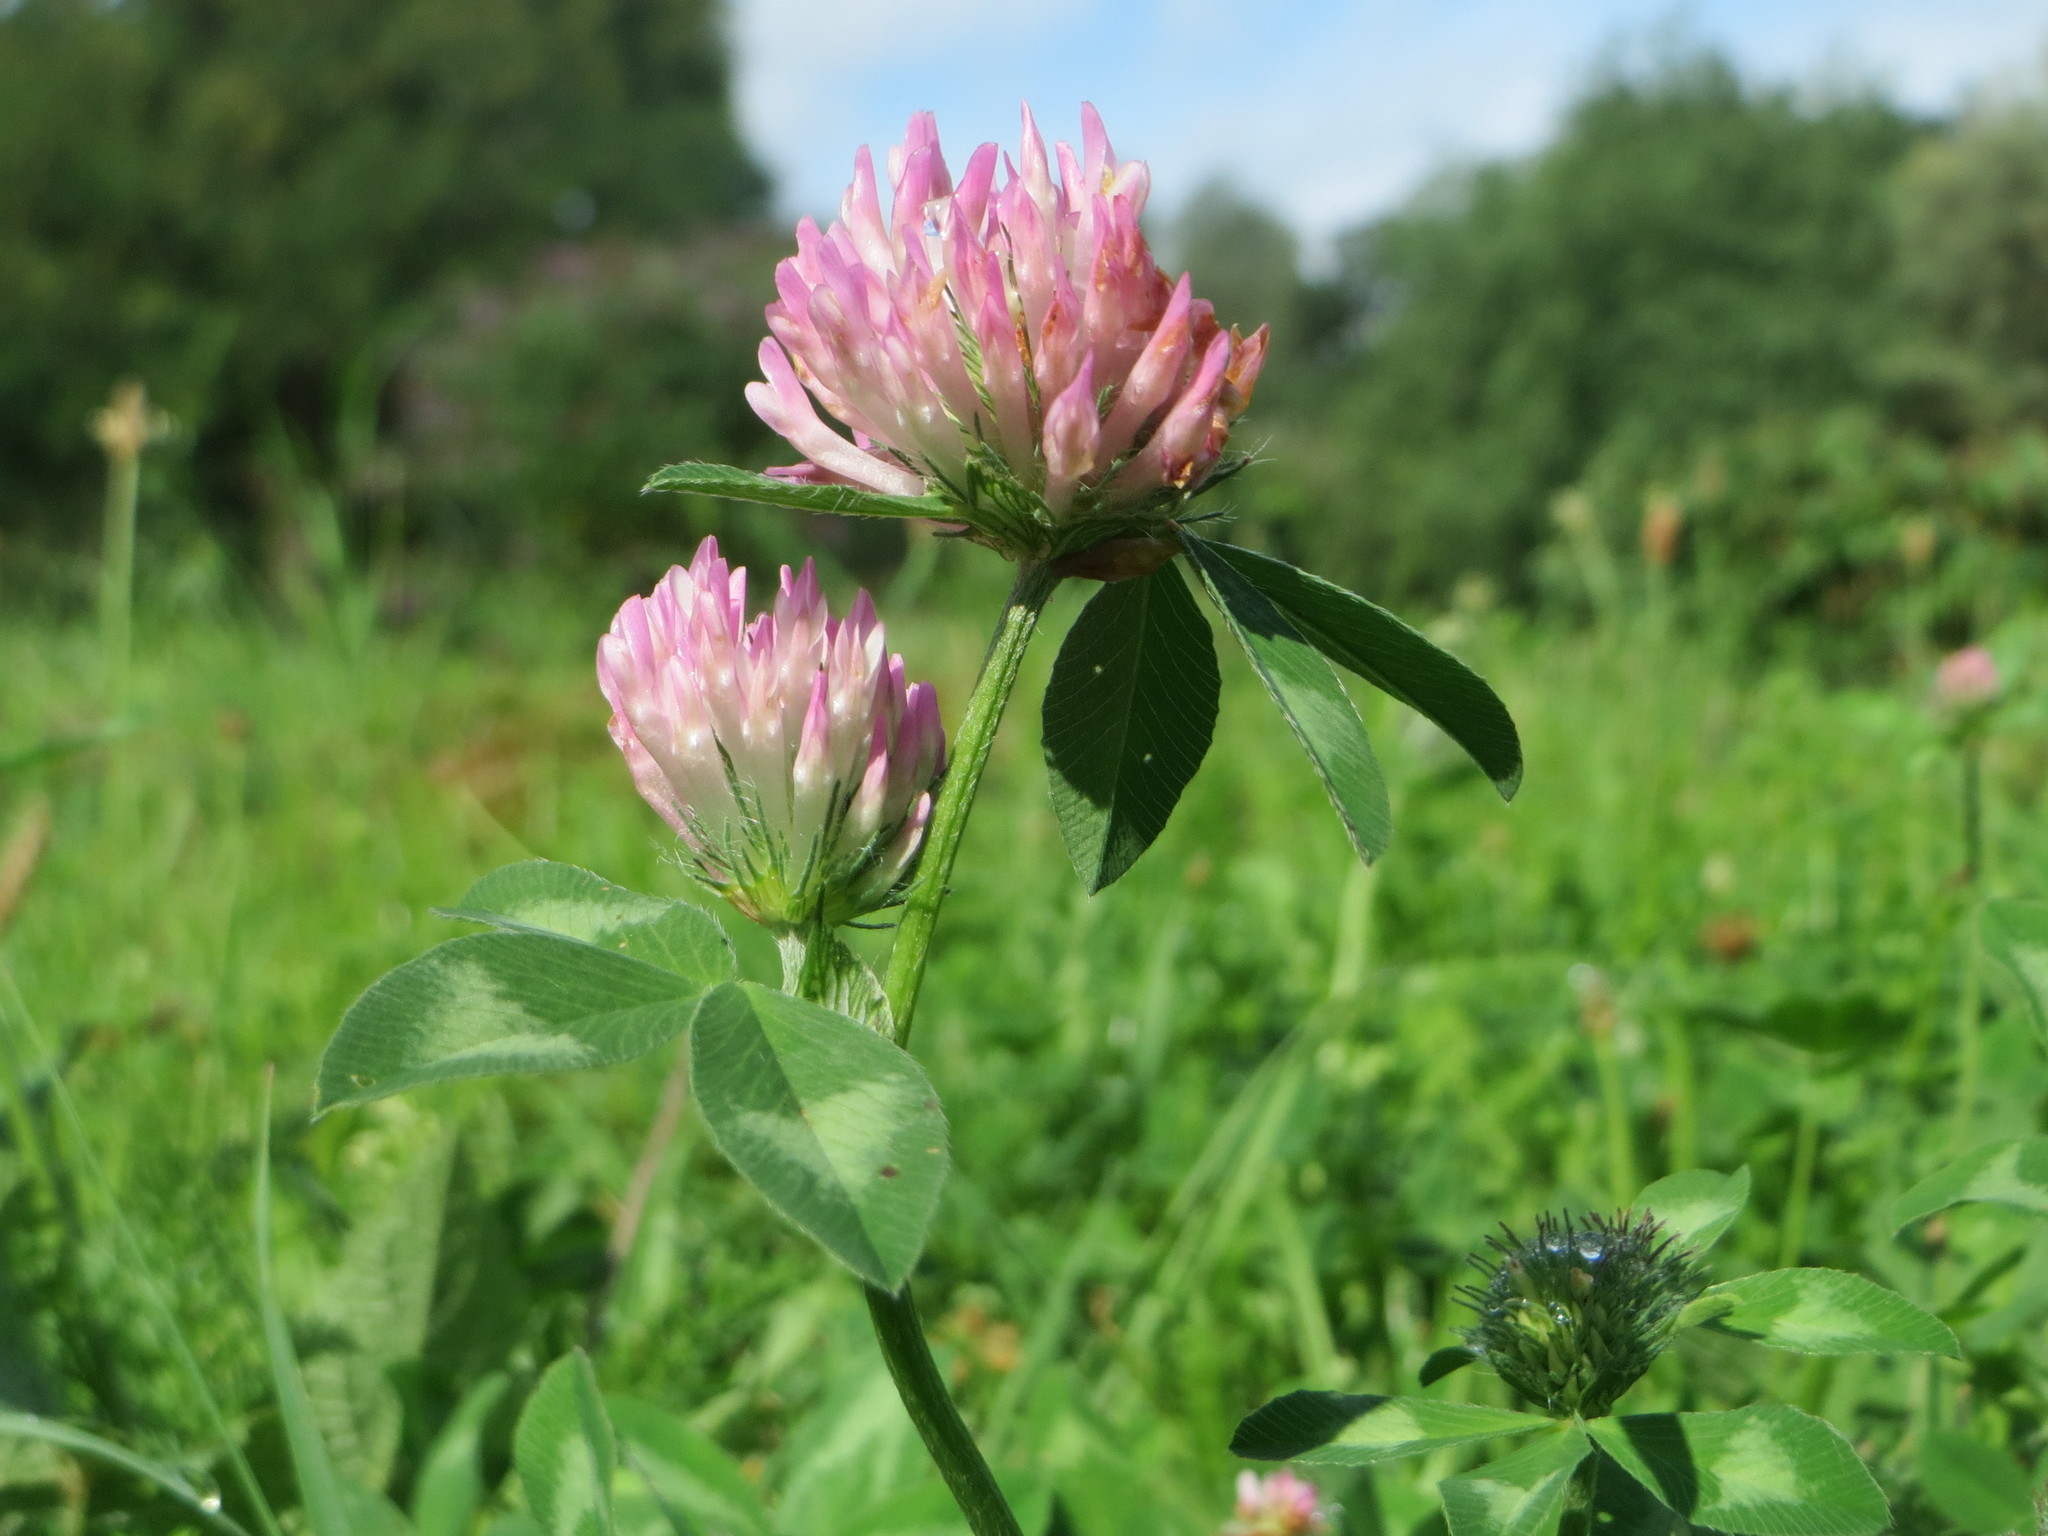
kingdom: Plantae
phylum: Tracheophyta
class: Magnoliopsida
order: Fabales
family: Fabaceae
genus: Trifolium
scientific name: Trifolium pratense
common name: Red clover
